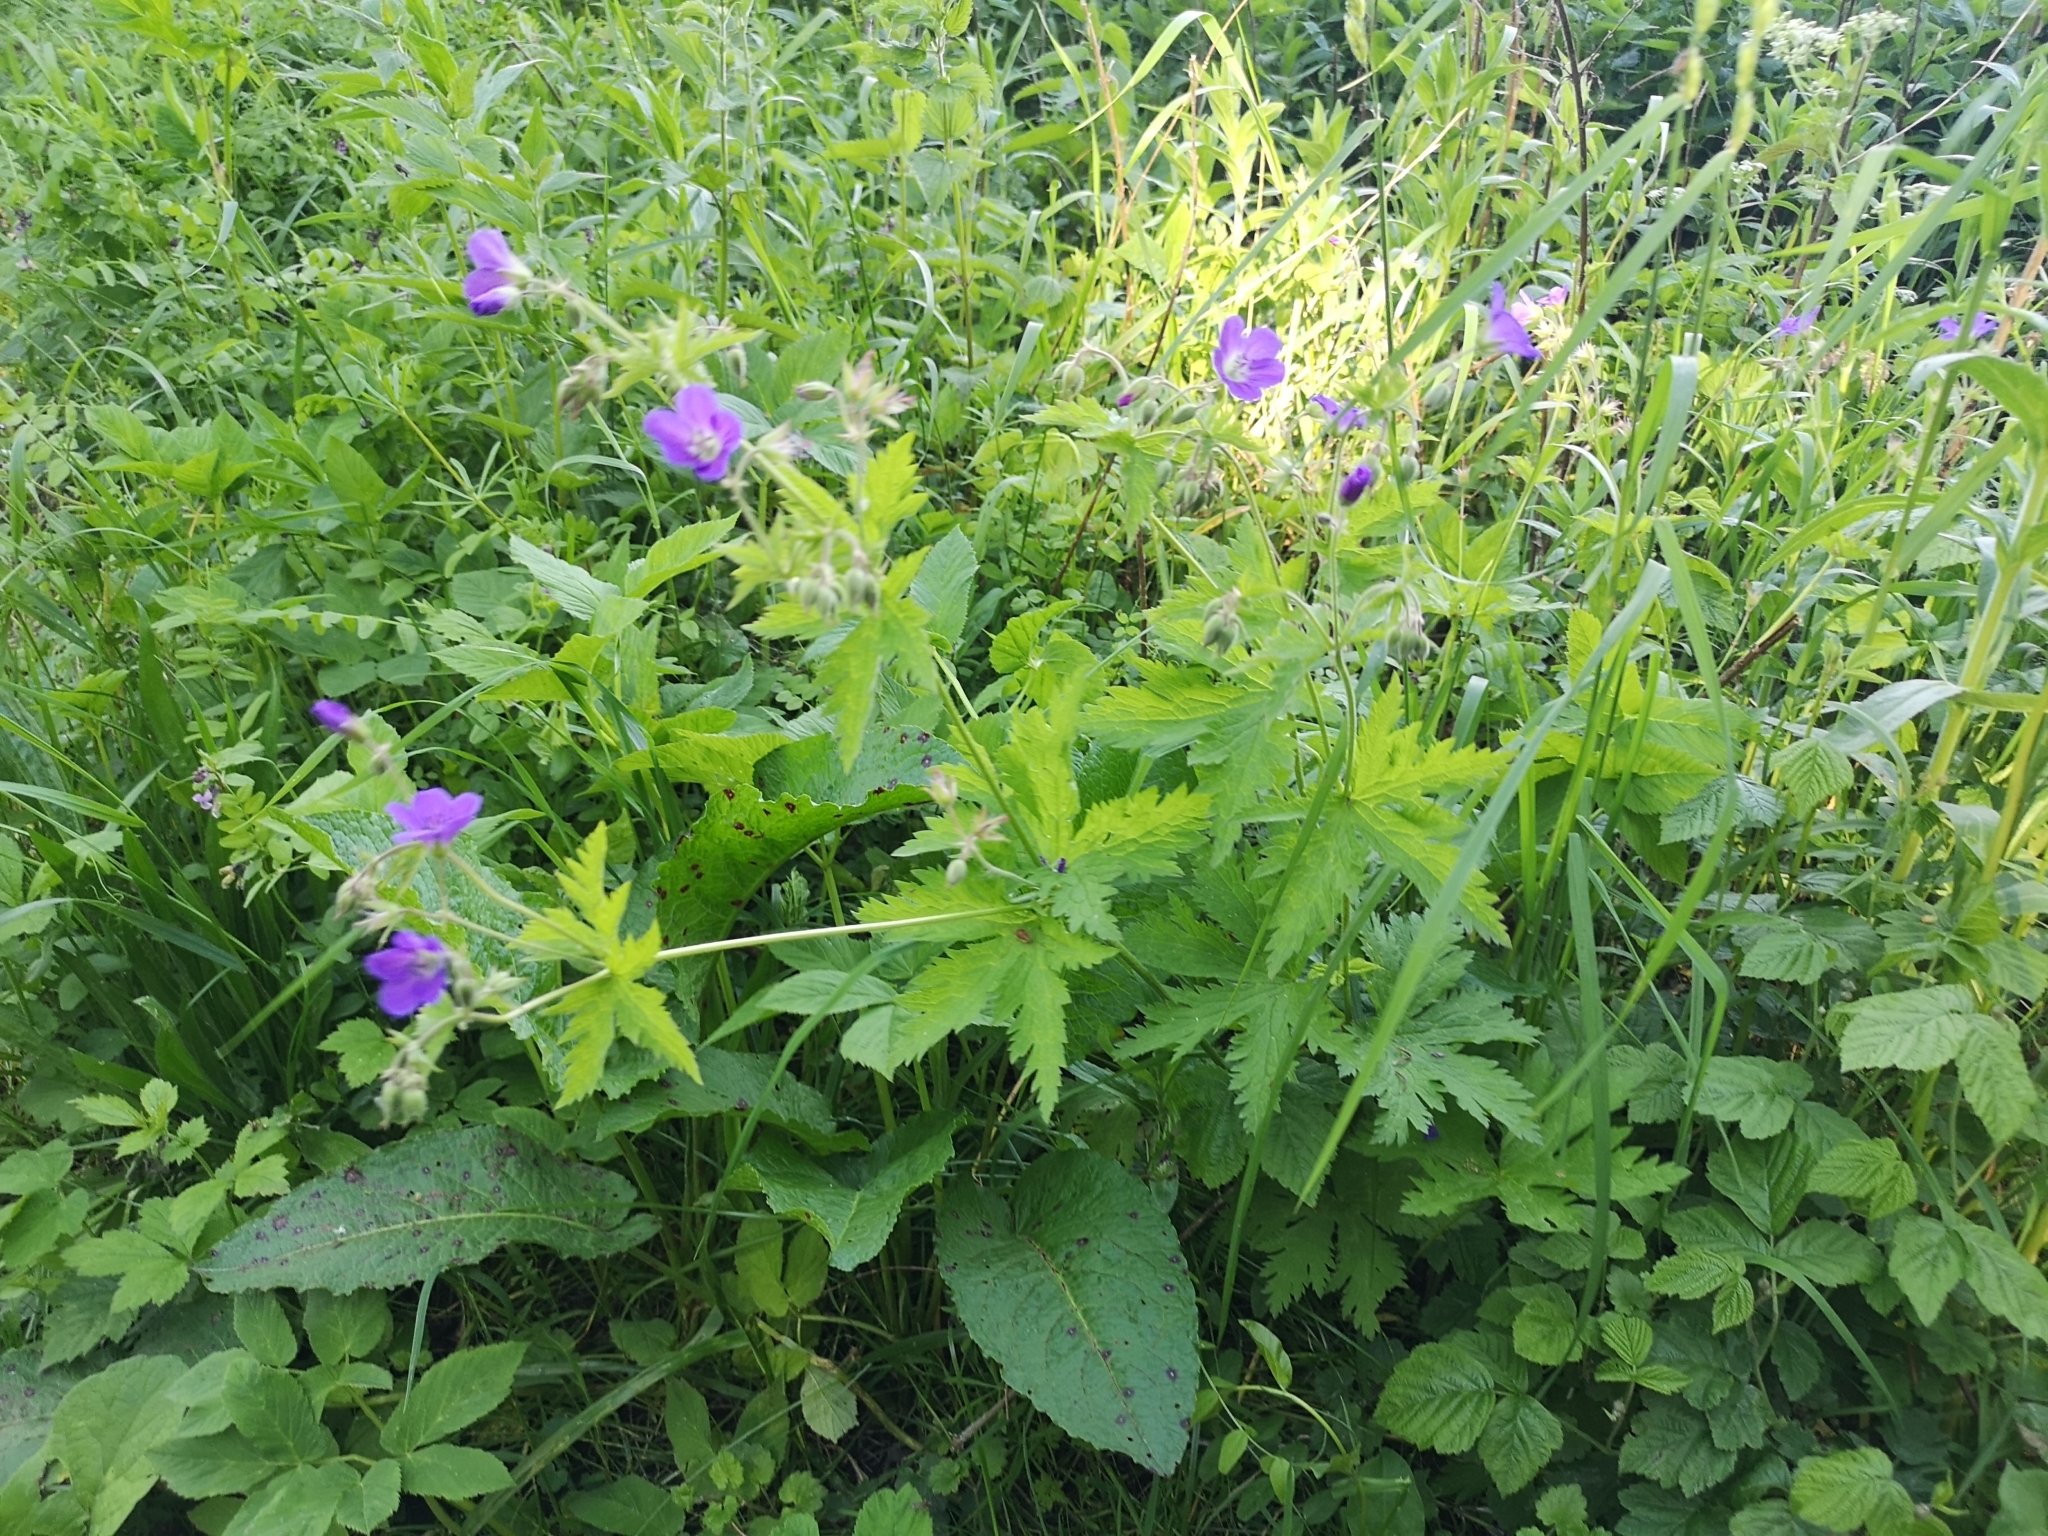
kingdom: Plantae
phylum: Tracheophyta
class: Magnoliopsida
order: Geraniales
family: Geraniaceae
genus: Geranium
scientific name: Geranium sylvaticum
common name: Wood crane's-bill
